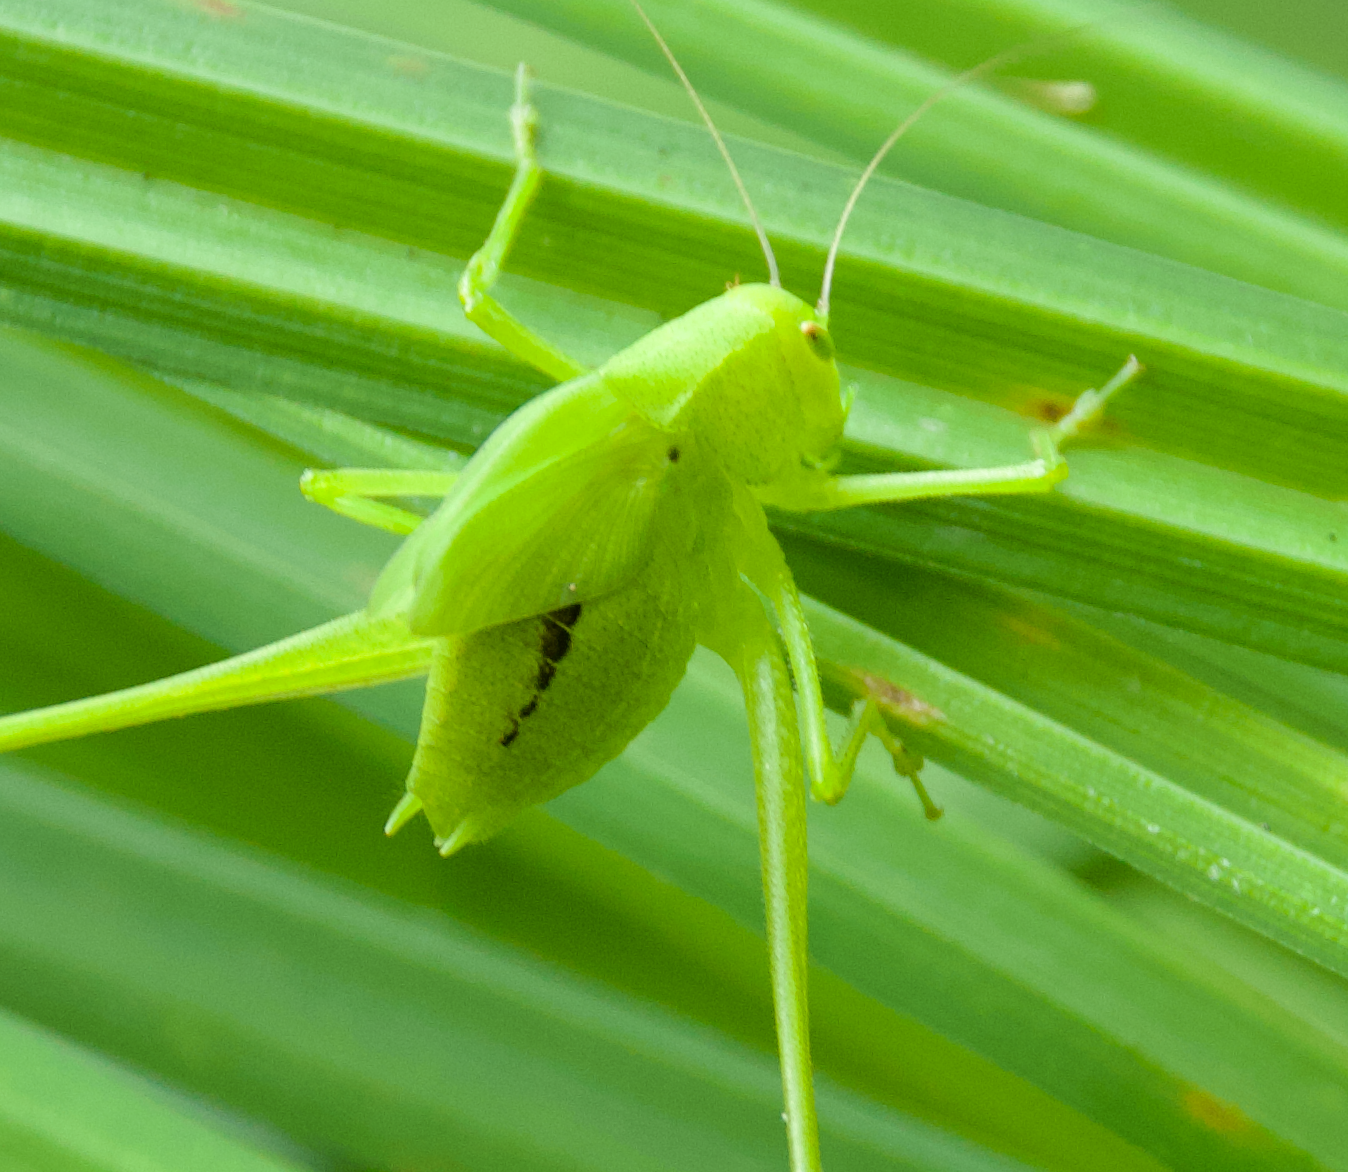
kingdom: Animalia
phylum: Arthropoda
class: Insecta
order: Orthoptera
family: Tettigoniidae
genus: Amblycorypha
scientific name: Amblycorypha oblongifolia
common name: Oblong-winged katydid
